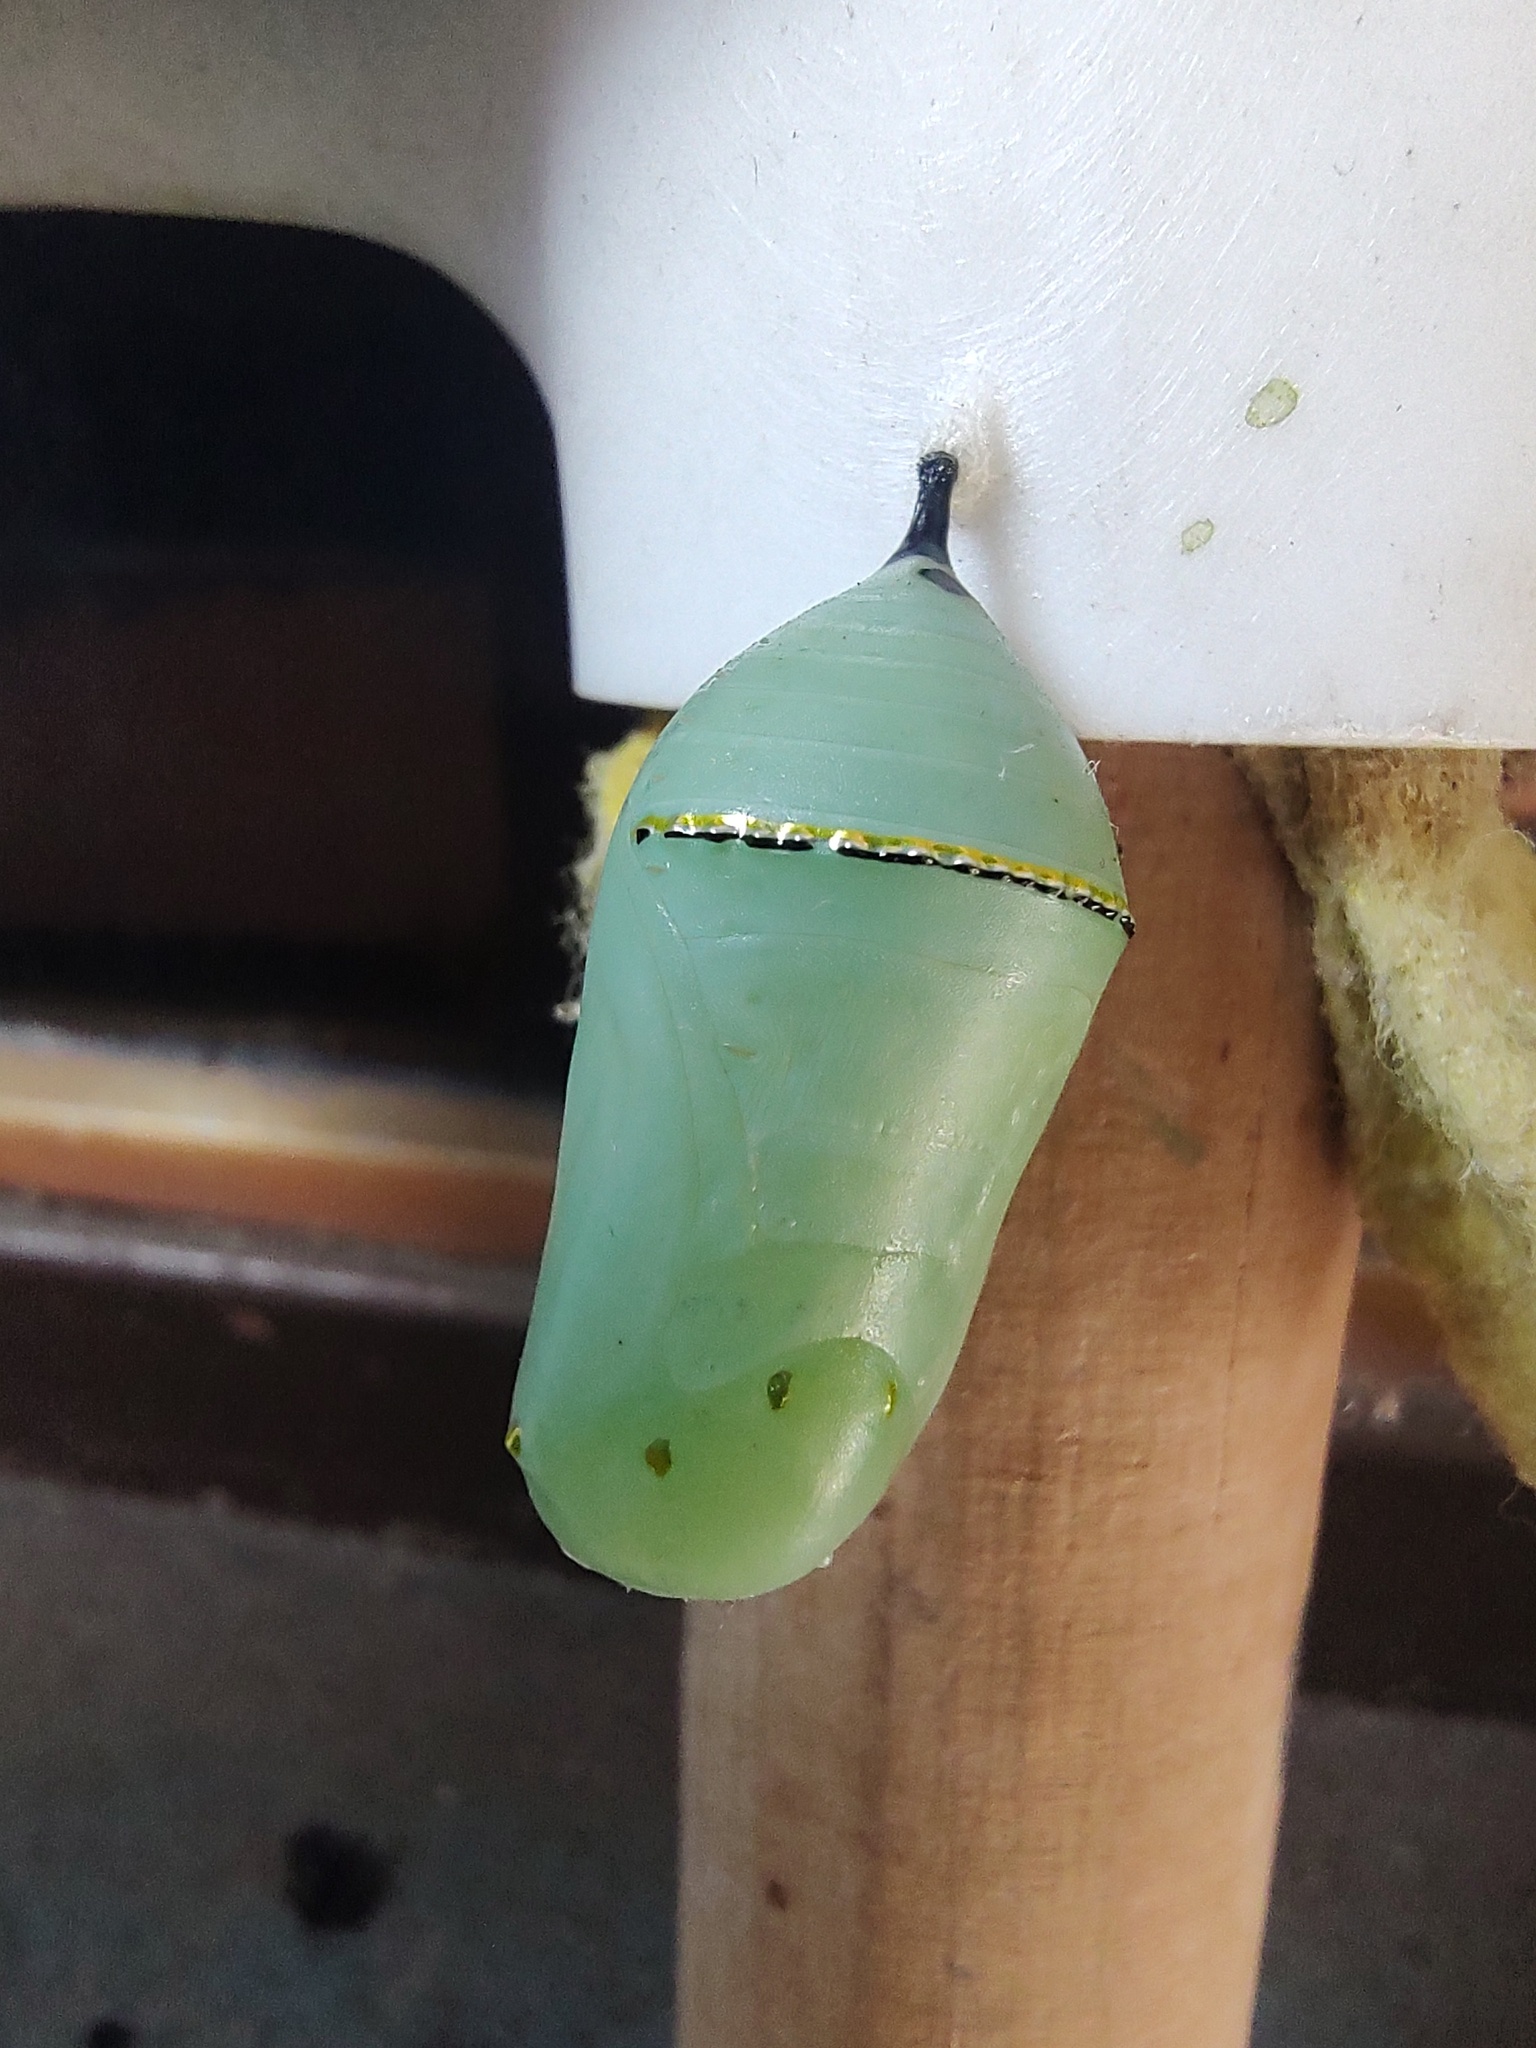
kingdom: Animalia
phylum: Arthropoda
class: Insecta
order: Lepidoptera
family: Nymphalidae
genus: Danaus
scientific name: Danaus plexippus
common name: Monarch
